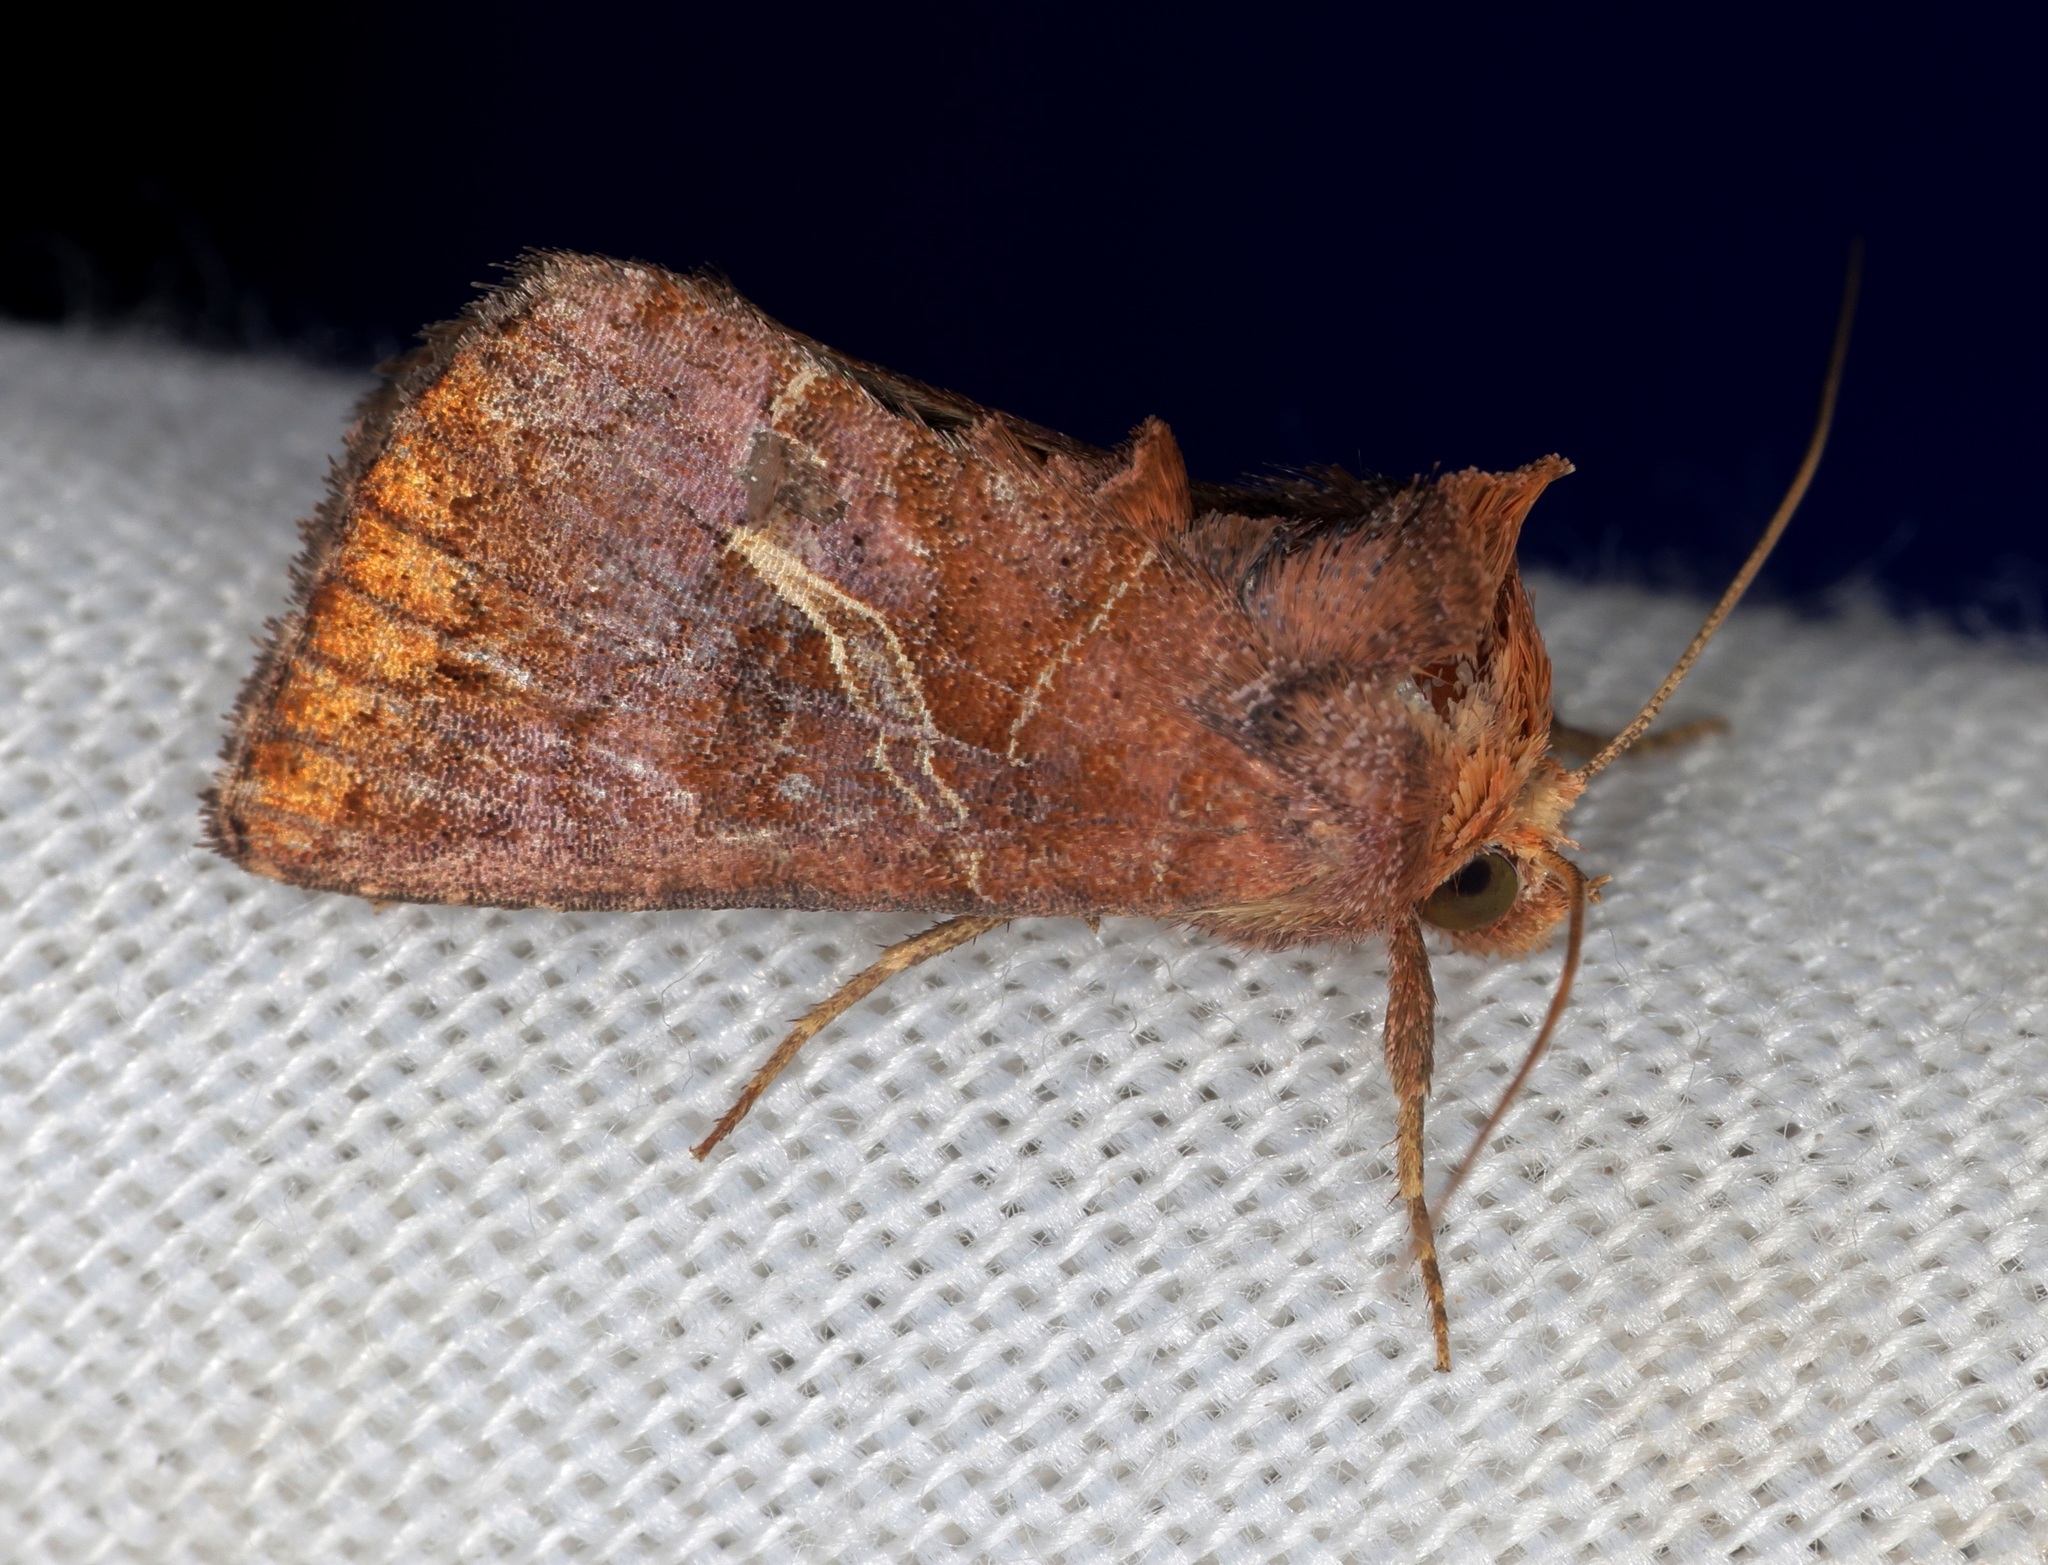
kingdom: Animalia
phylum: Arthropoda
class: Insecta
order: Lepidoptera
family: Noctuidae
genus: Zonoplusia
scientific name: Zonoplusia ochreata
